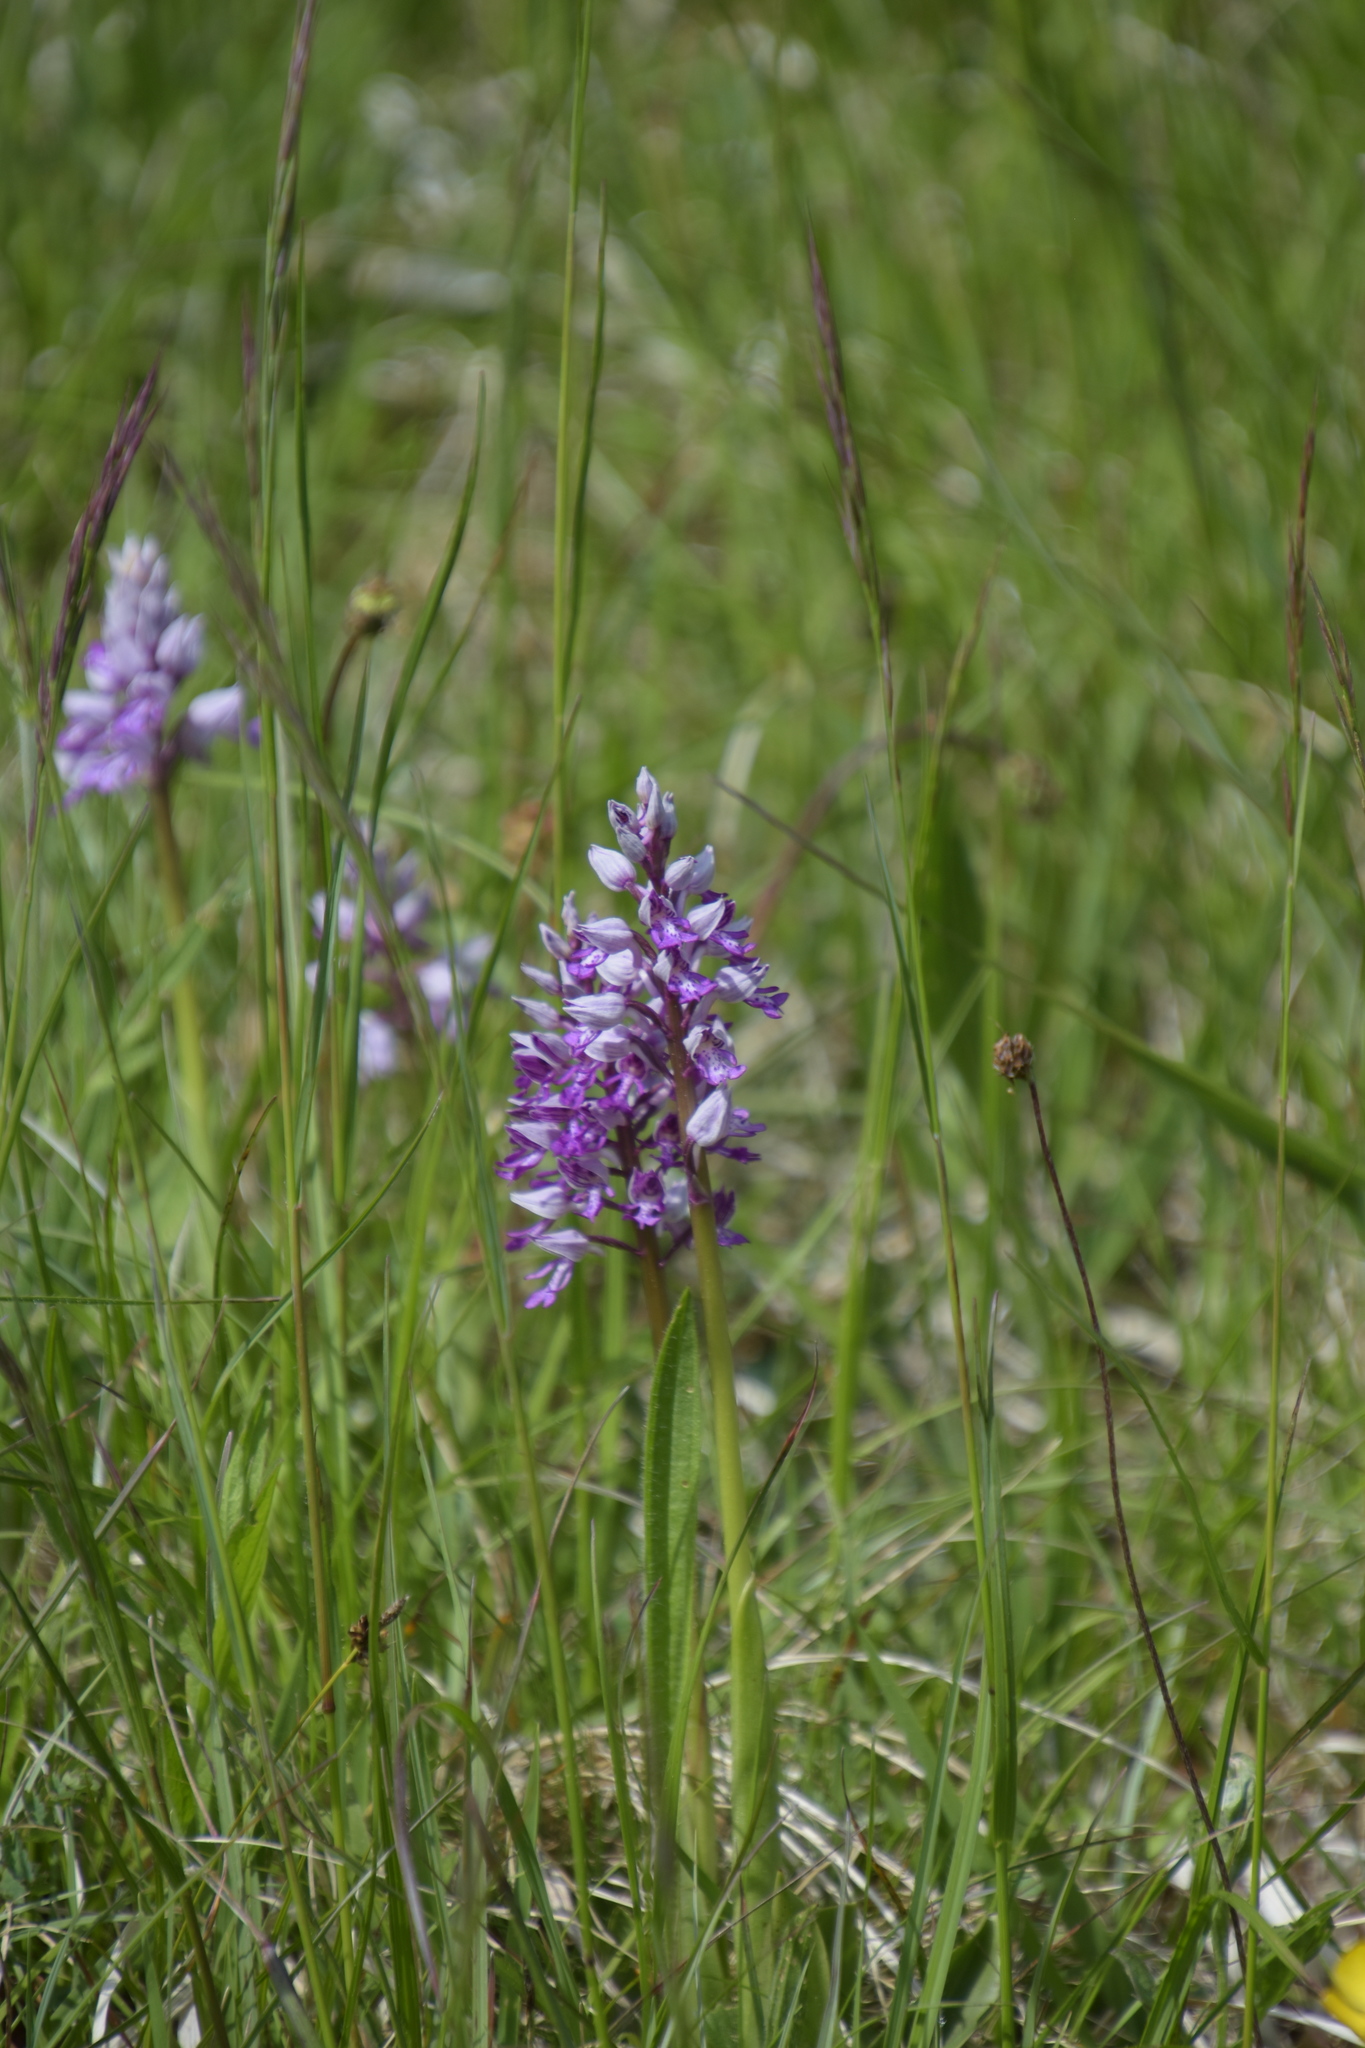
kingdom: Plantae
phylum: Tracheophyta
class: Liliopsida
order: Asparagales
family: Orchidaceae
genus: Orchis
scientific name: Orchis militaris
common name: Military orchid
